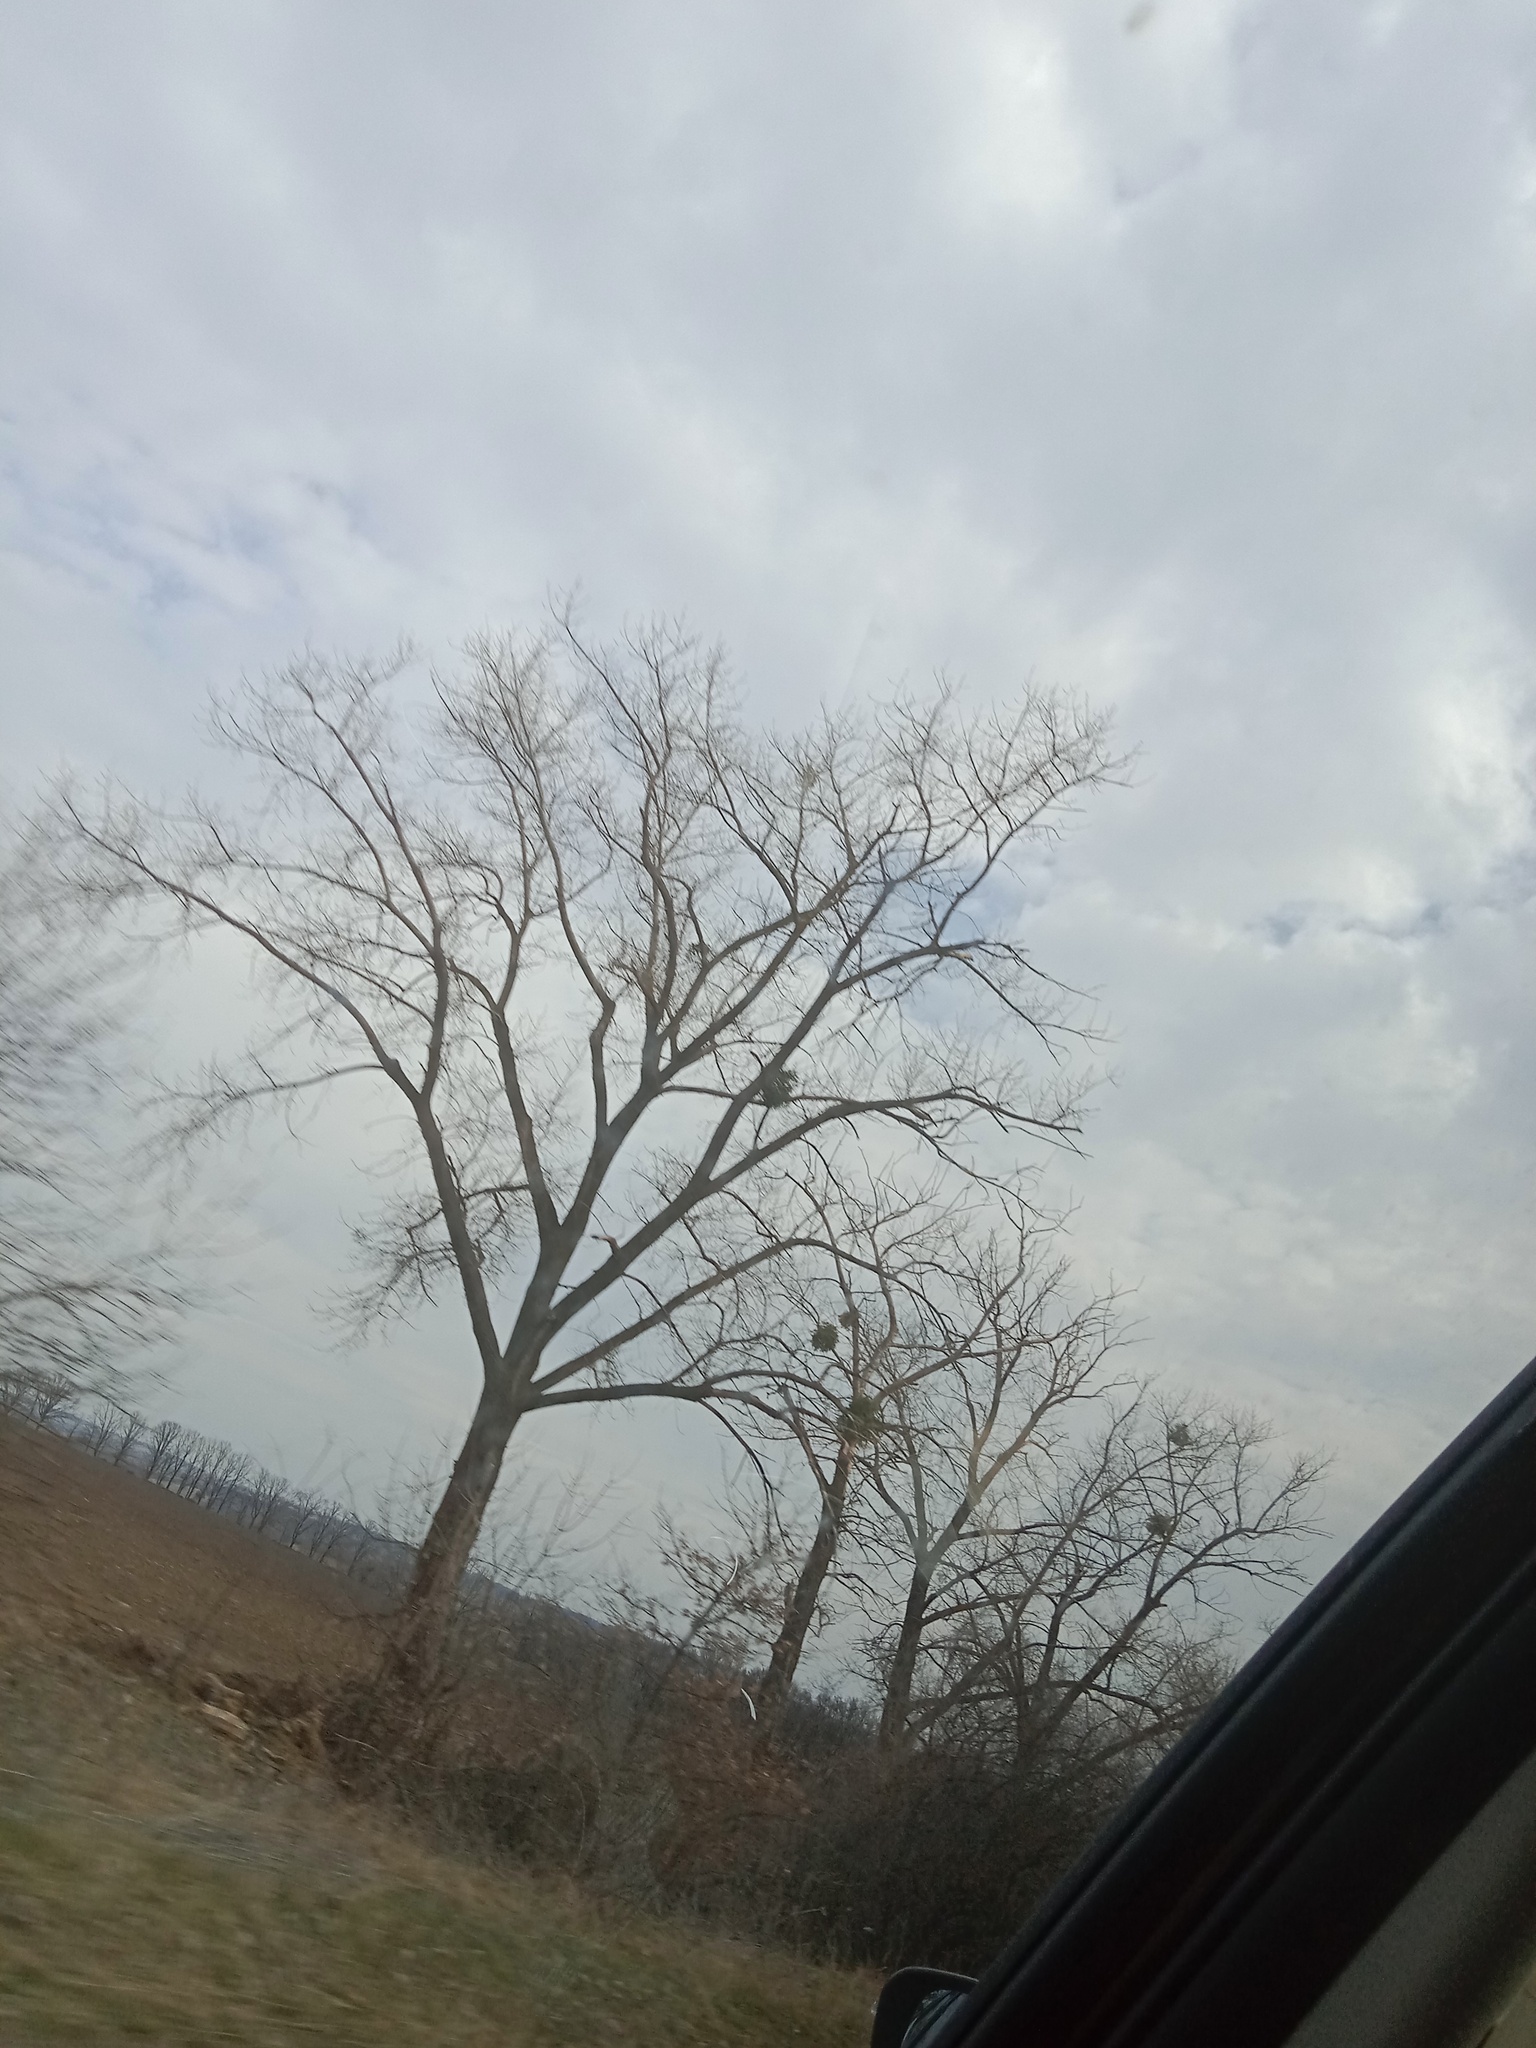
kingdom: Plantae
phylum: Tracheophyta
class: Magnoliopsida
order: Santalales
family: Viscaceae
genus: Viscum
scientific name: Viscum album
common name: Mistletoe
